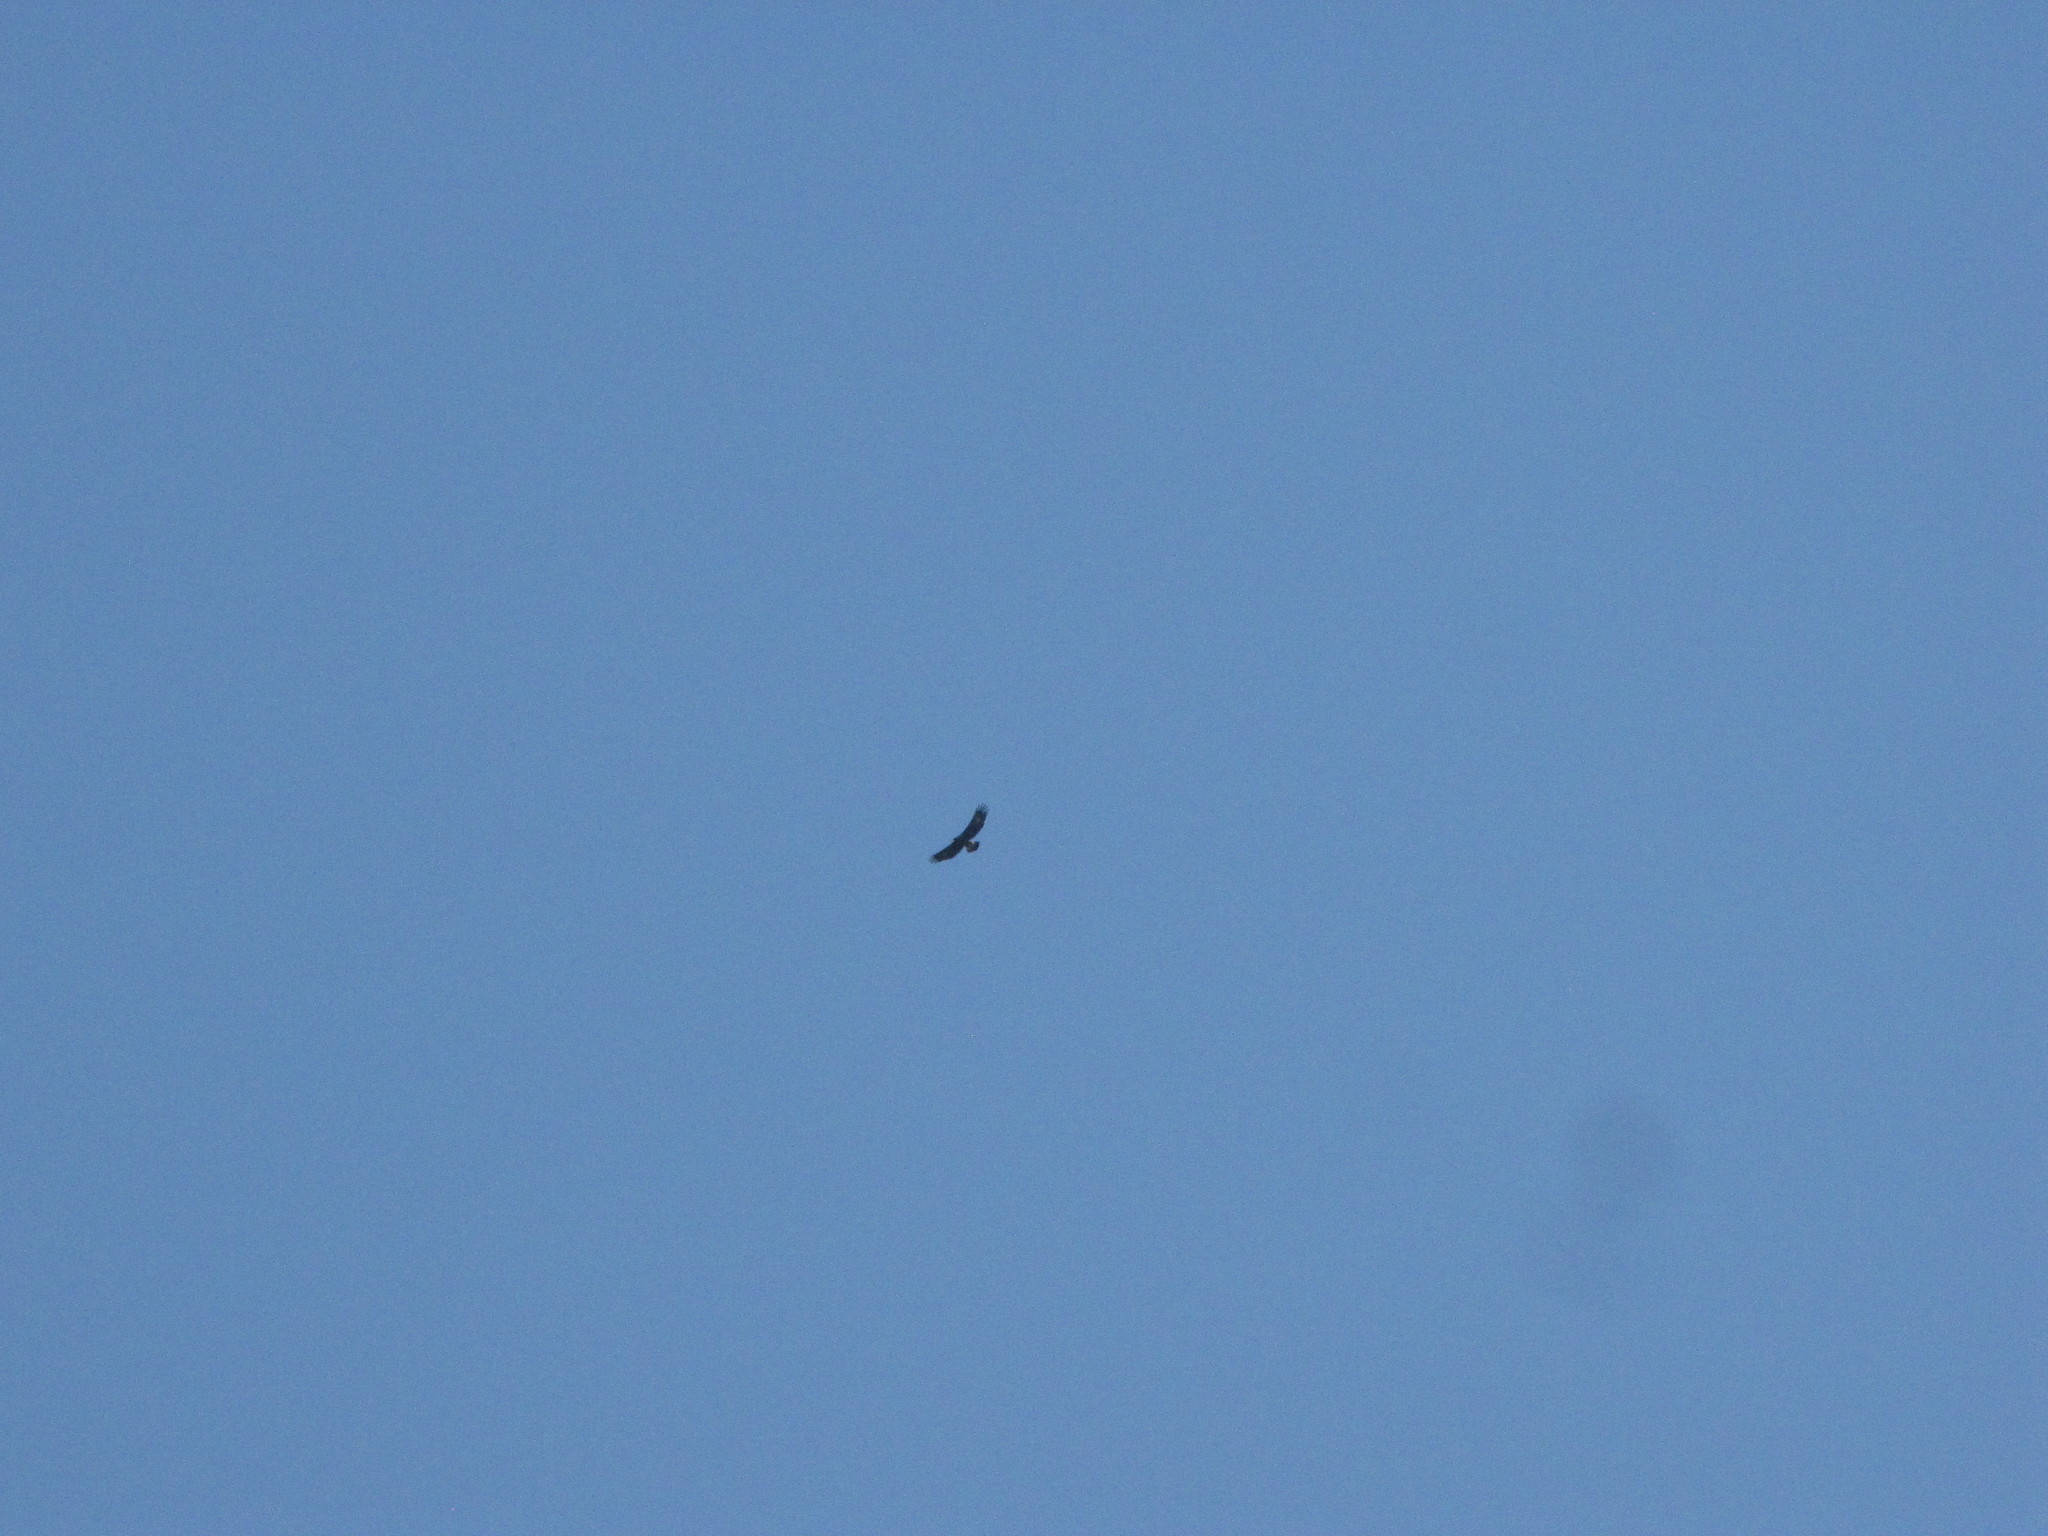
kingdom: Animalia
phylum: Chordata
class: Aves
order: Accipitriformes
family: Accipitridae
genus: Aquila
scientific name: Aquila chrysaetos
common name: Golden eagle
